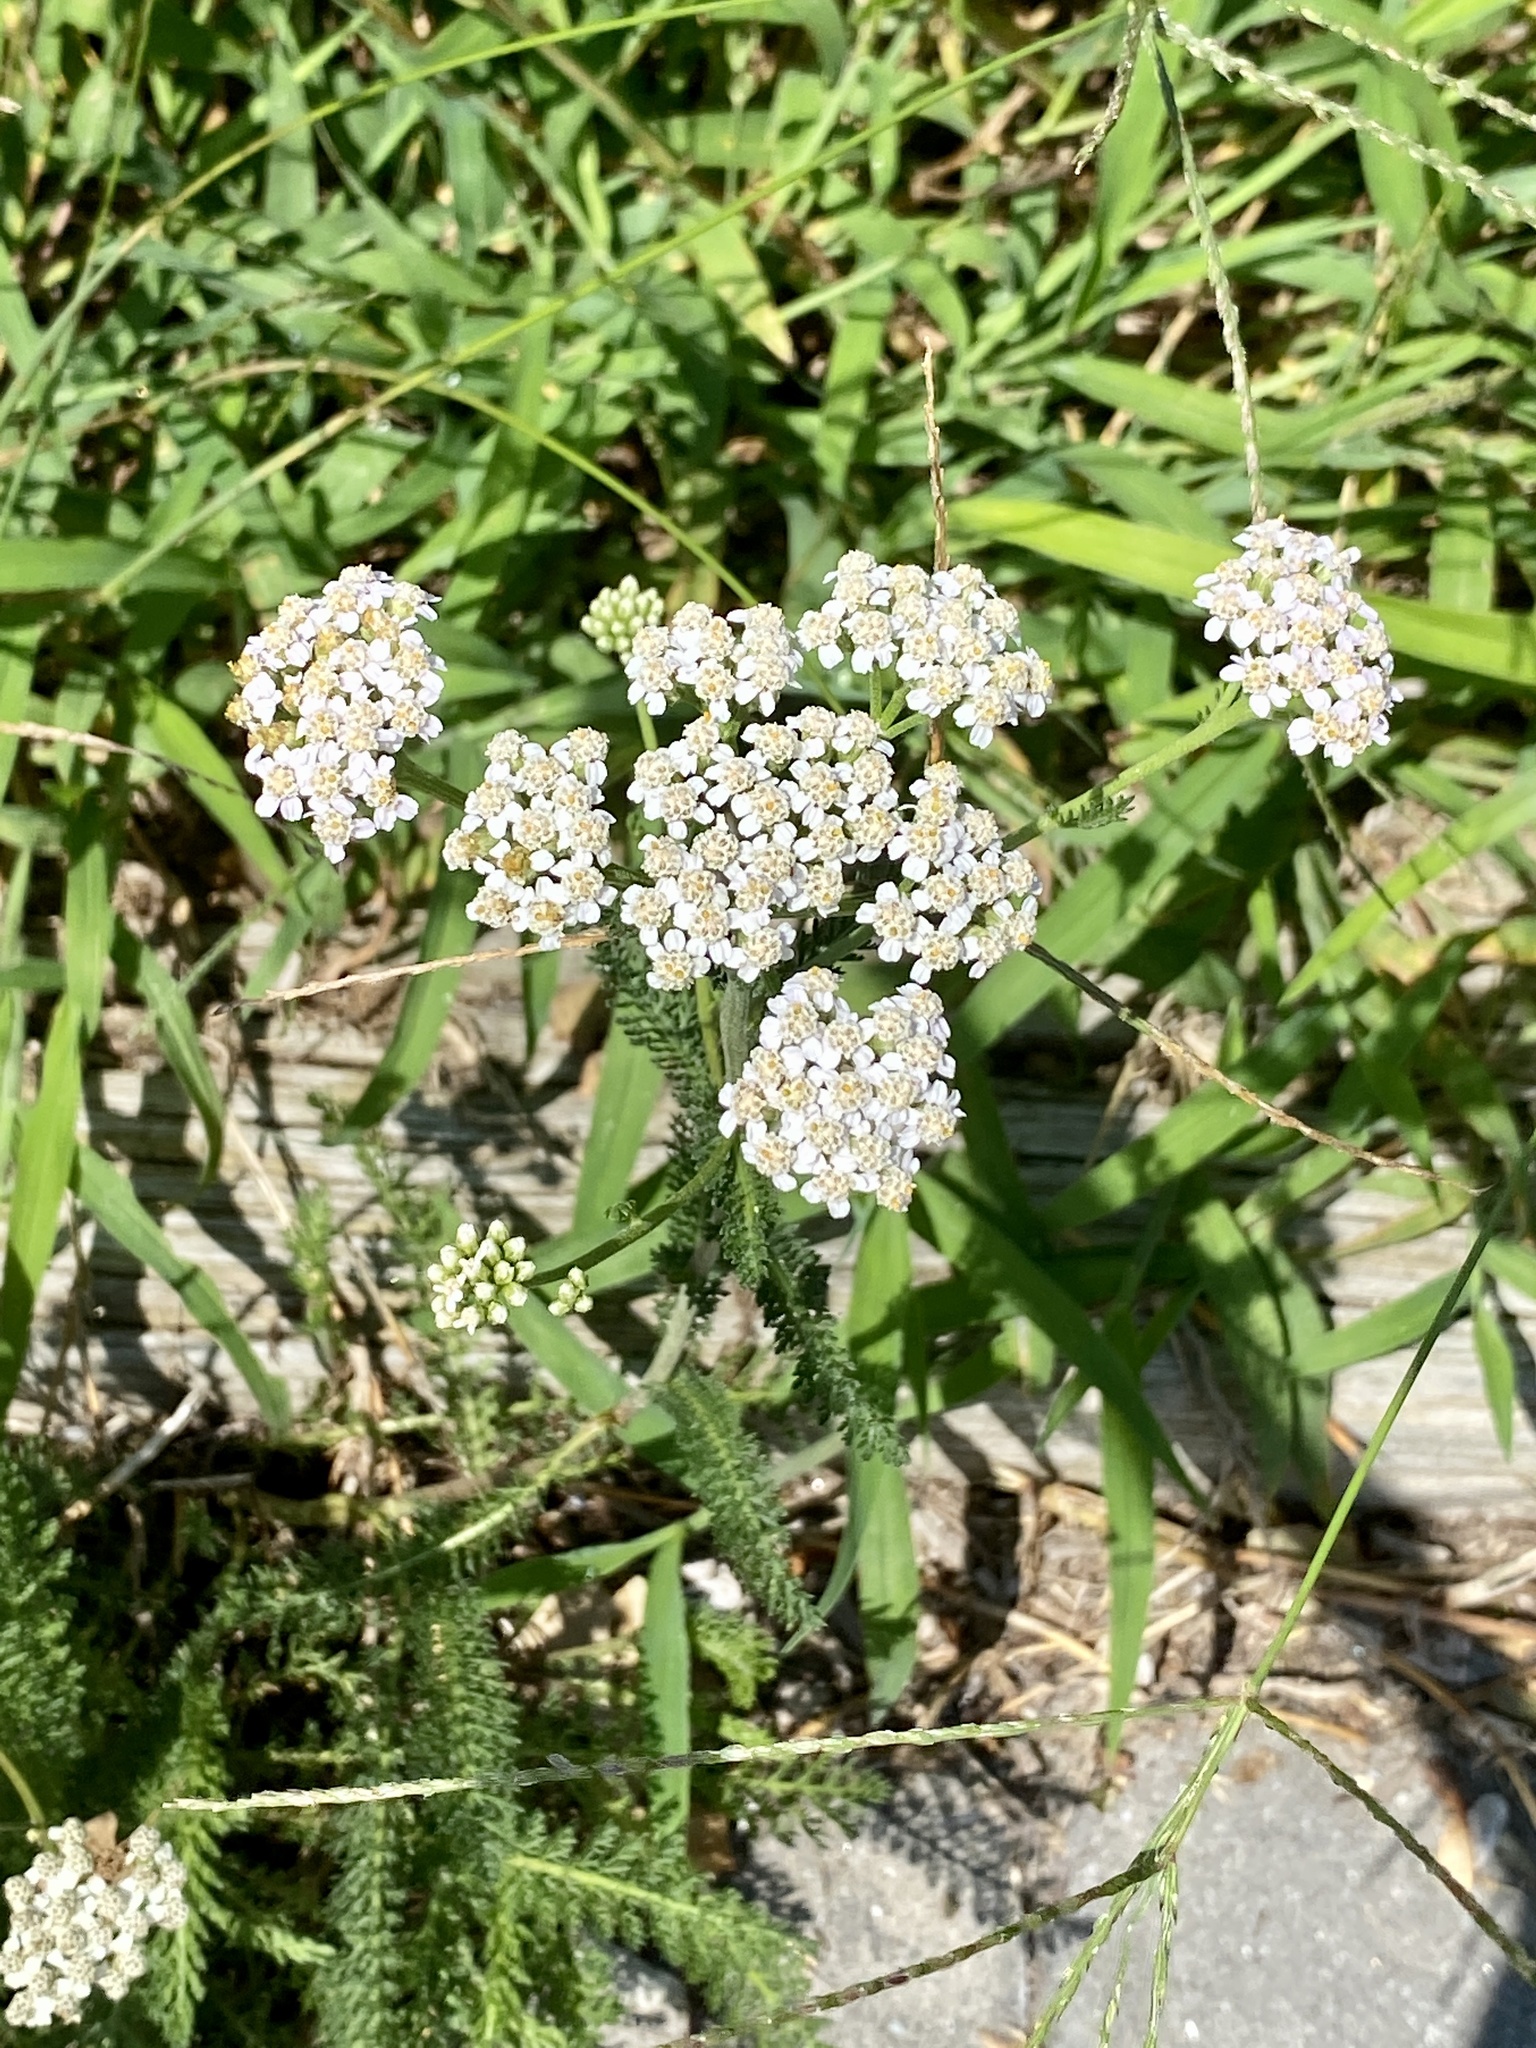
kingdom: Plantae
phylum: Tracheophyta
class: Magnoliopsida
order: Asterales
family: Asteraceae
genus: Achillea
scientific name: Achillea millefolium
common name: Yarrow
